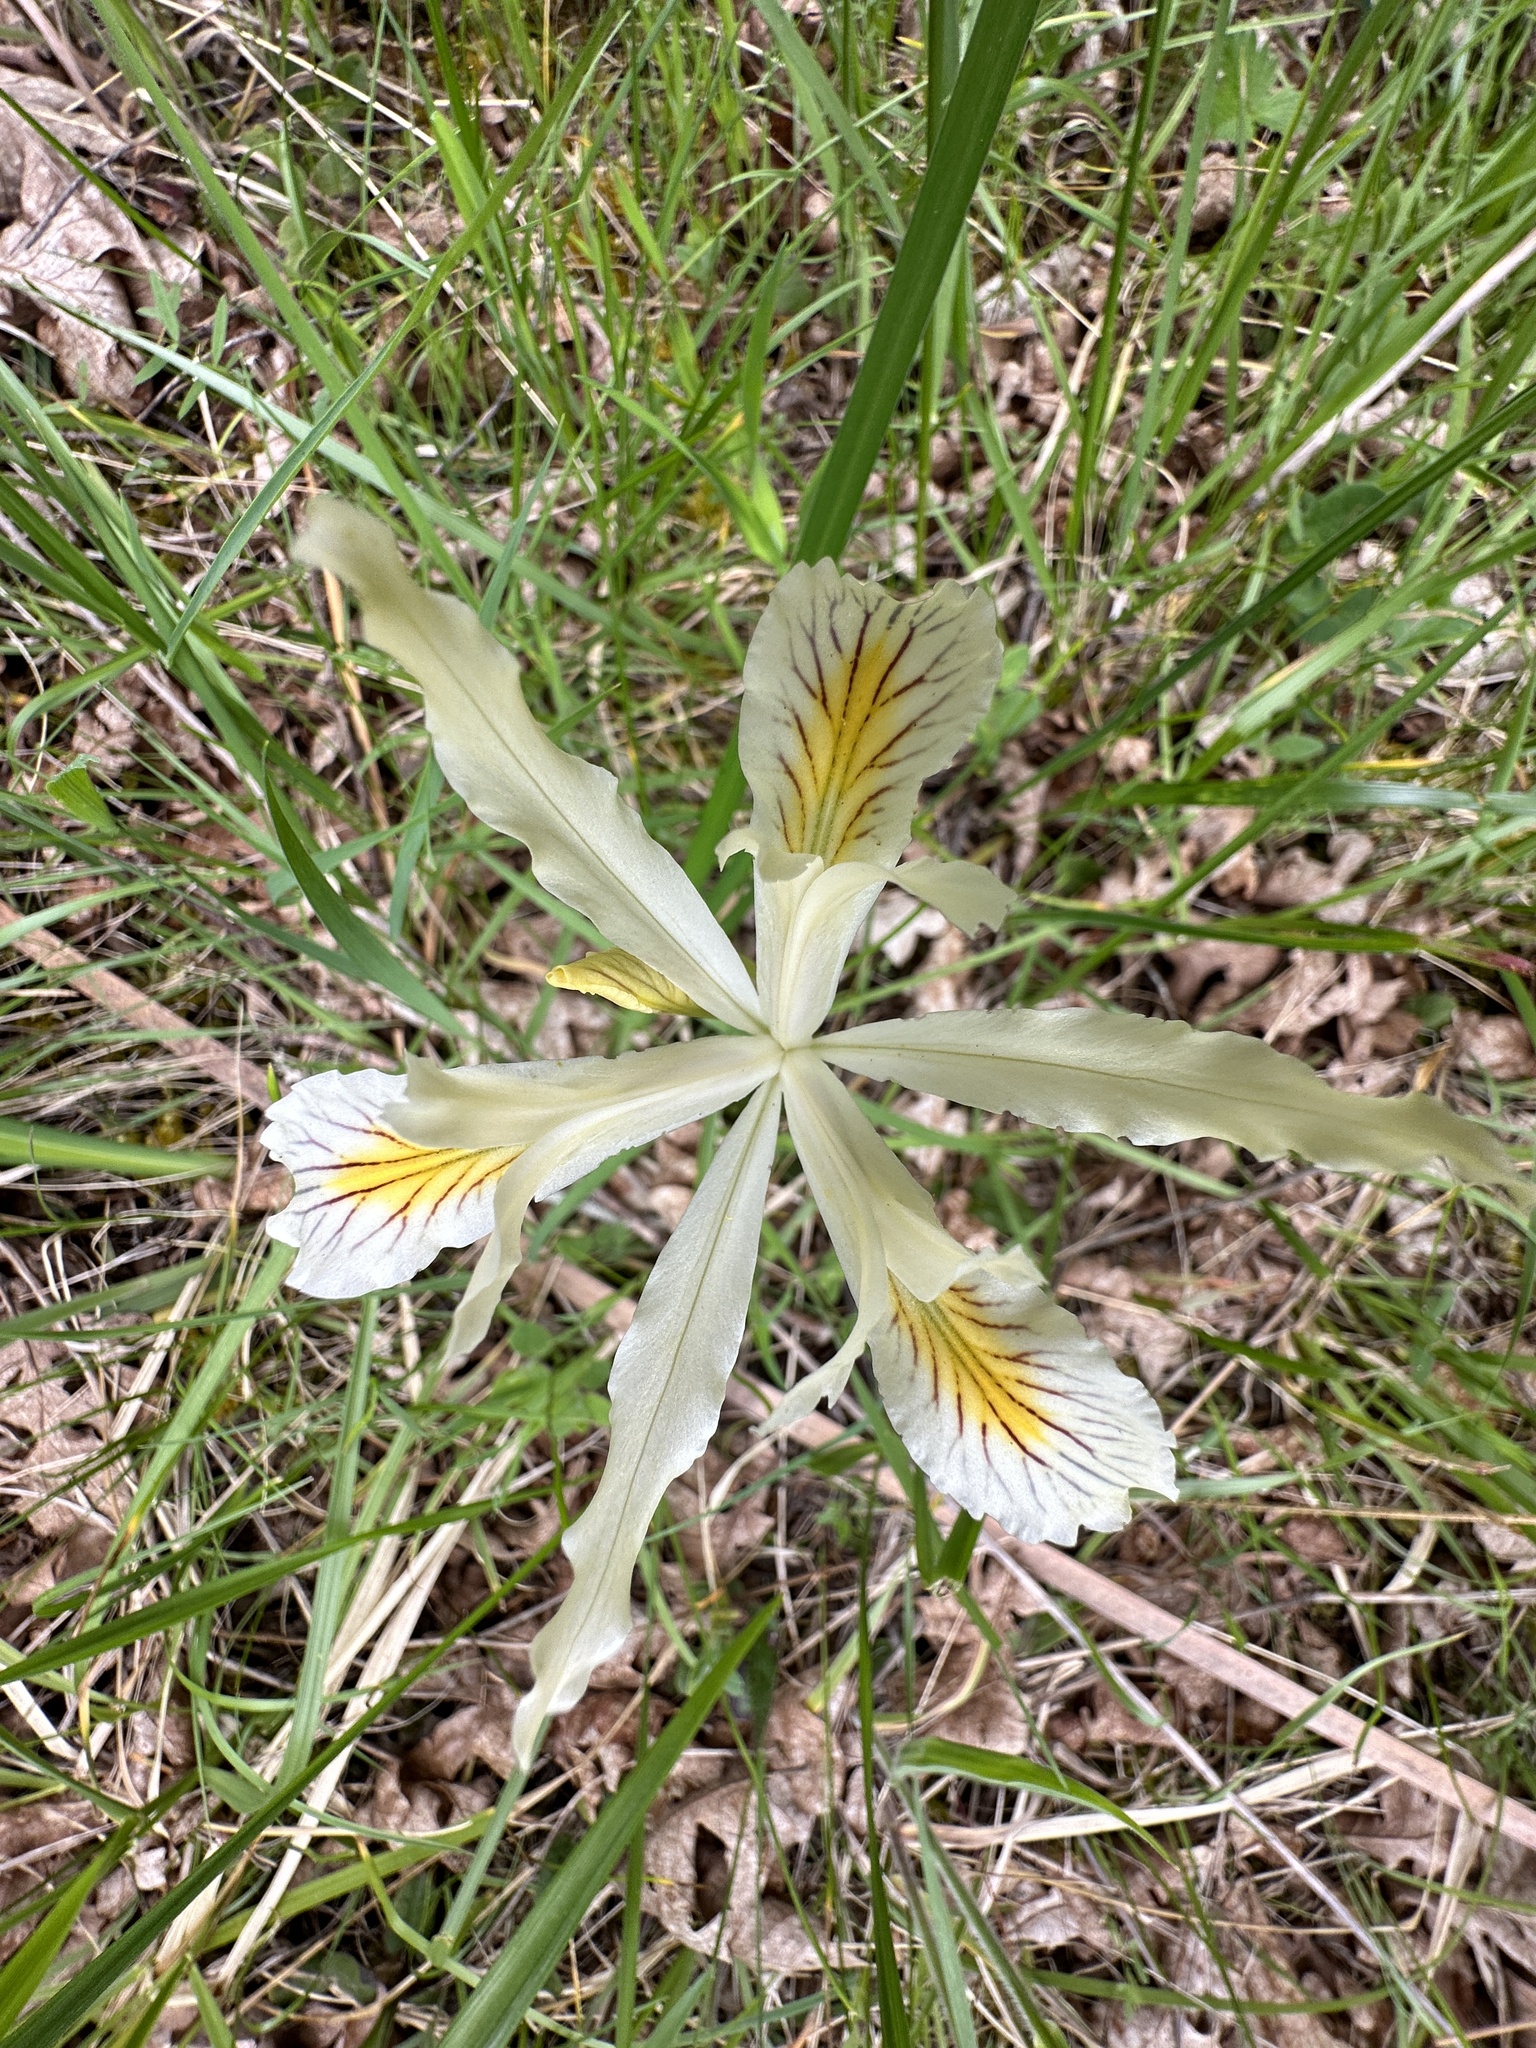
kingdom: Plantae
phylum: Tracheophyta
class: Liliopsida
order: Asparagales
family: Iridaceae
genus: Iris
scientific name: Iris chrysophylla
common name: Yellow-leaf iris
